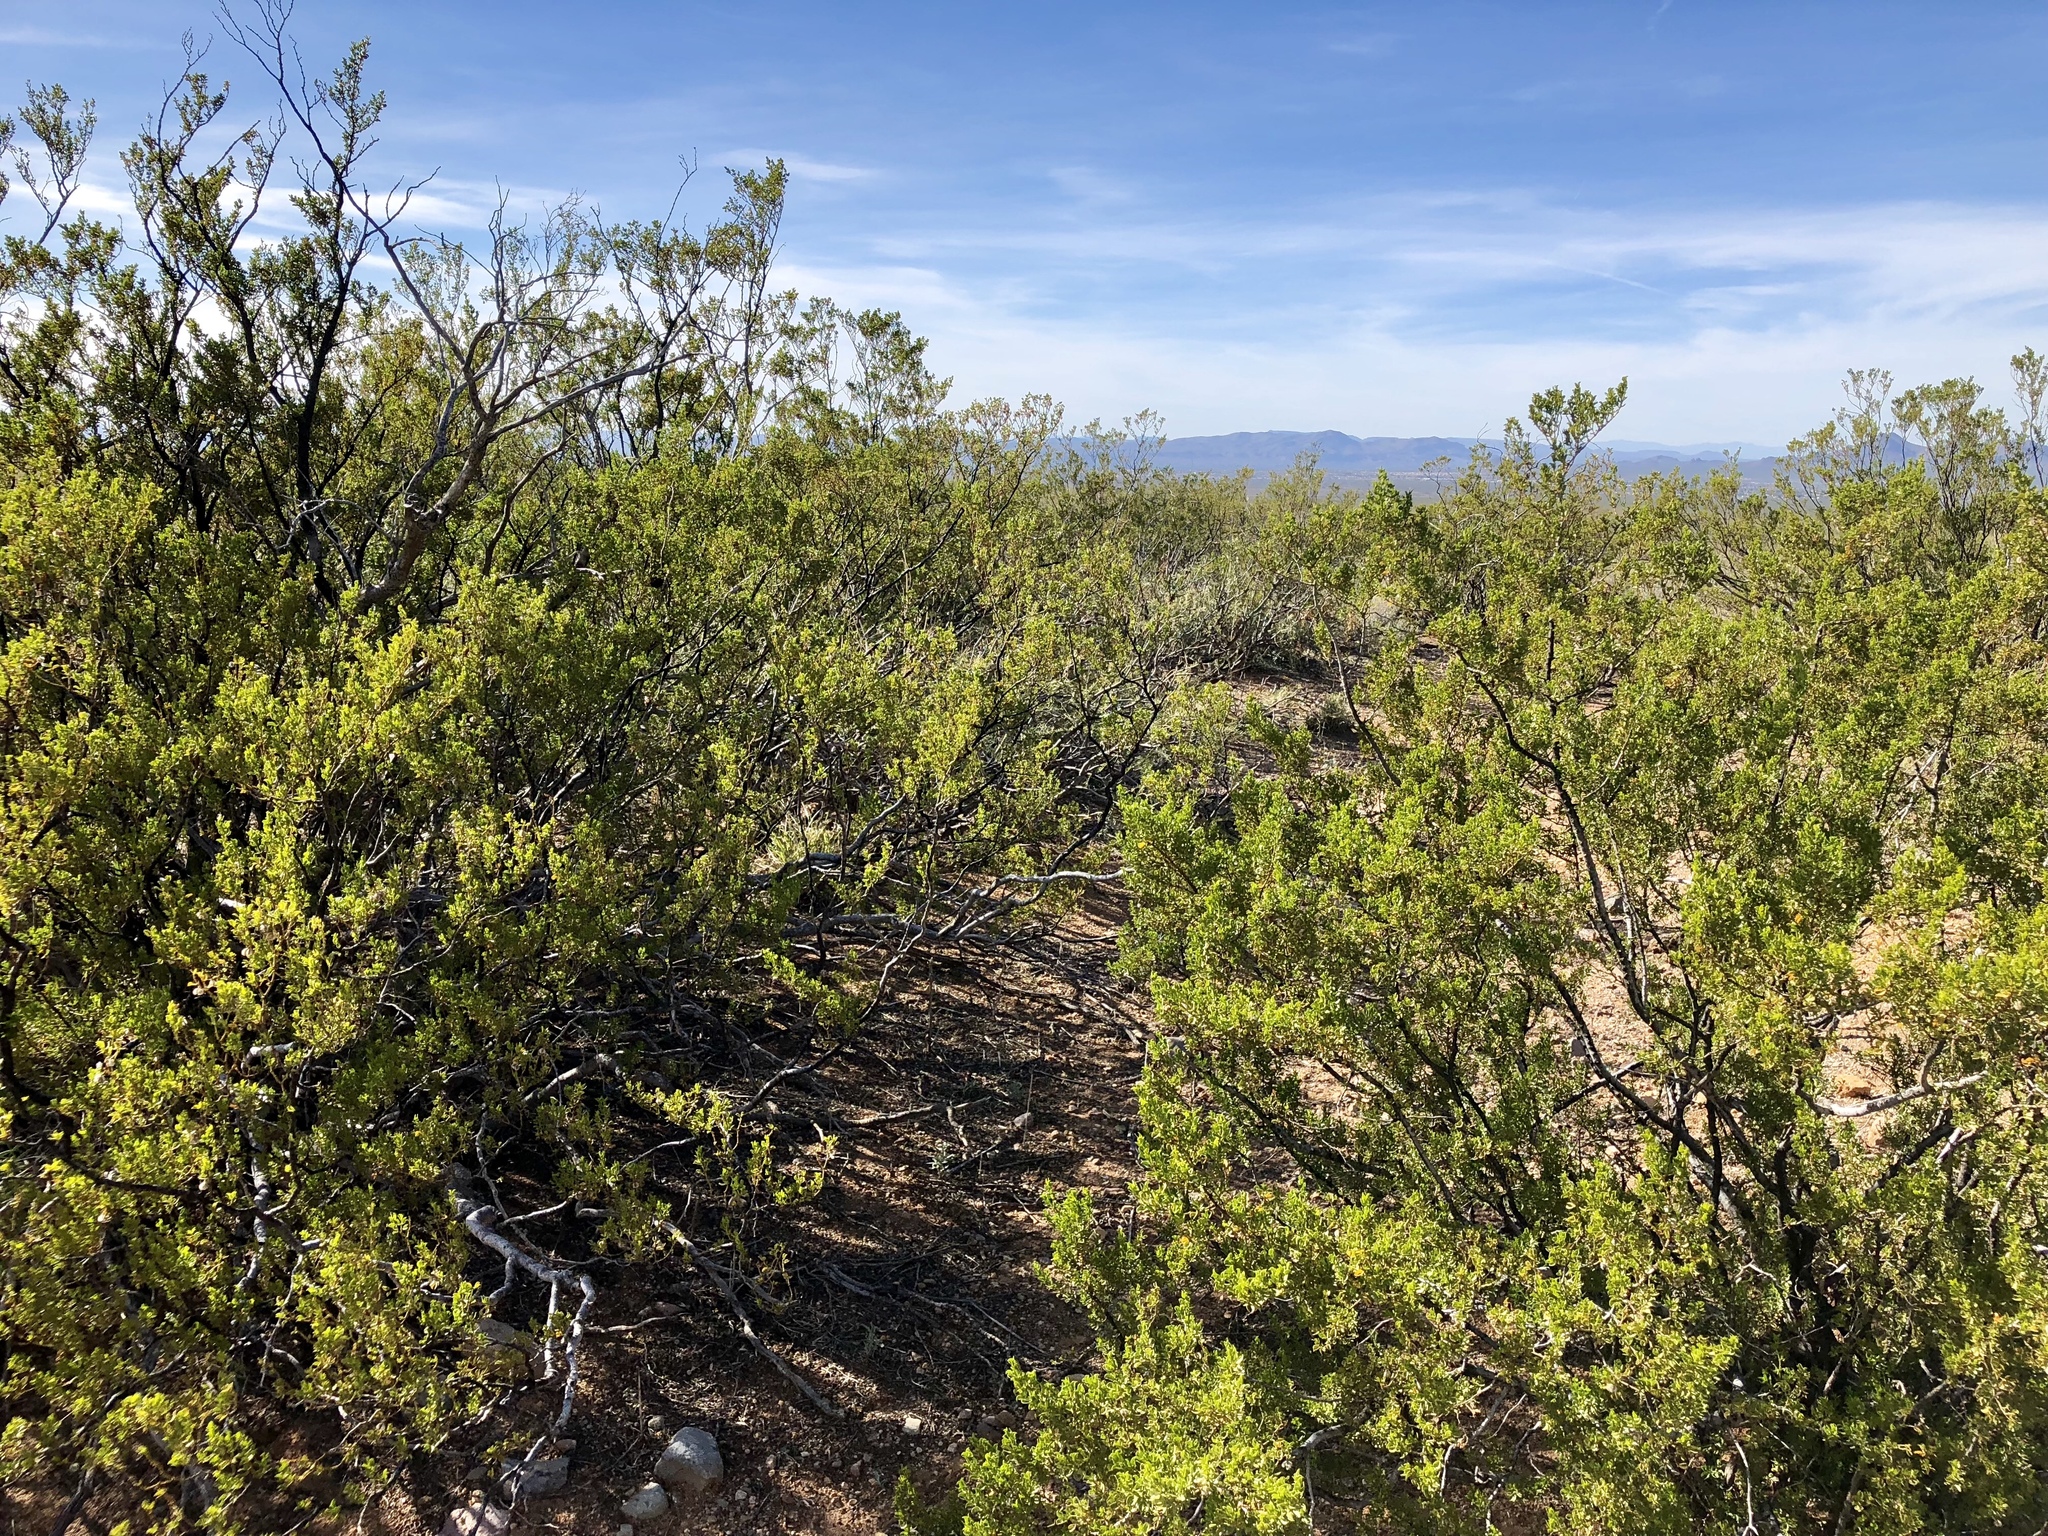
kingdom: Plantae
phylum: Tracheophyta
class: Magnoliopsida
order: Zygophyllales
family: Zygophyllaceae
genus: Larrea
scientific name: Larrea tridentata
